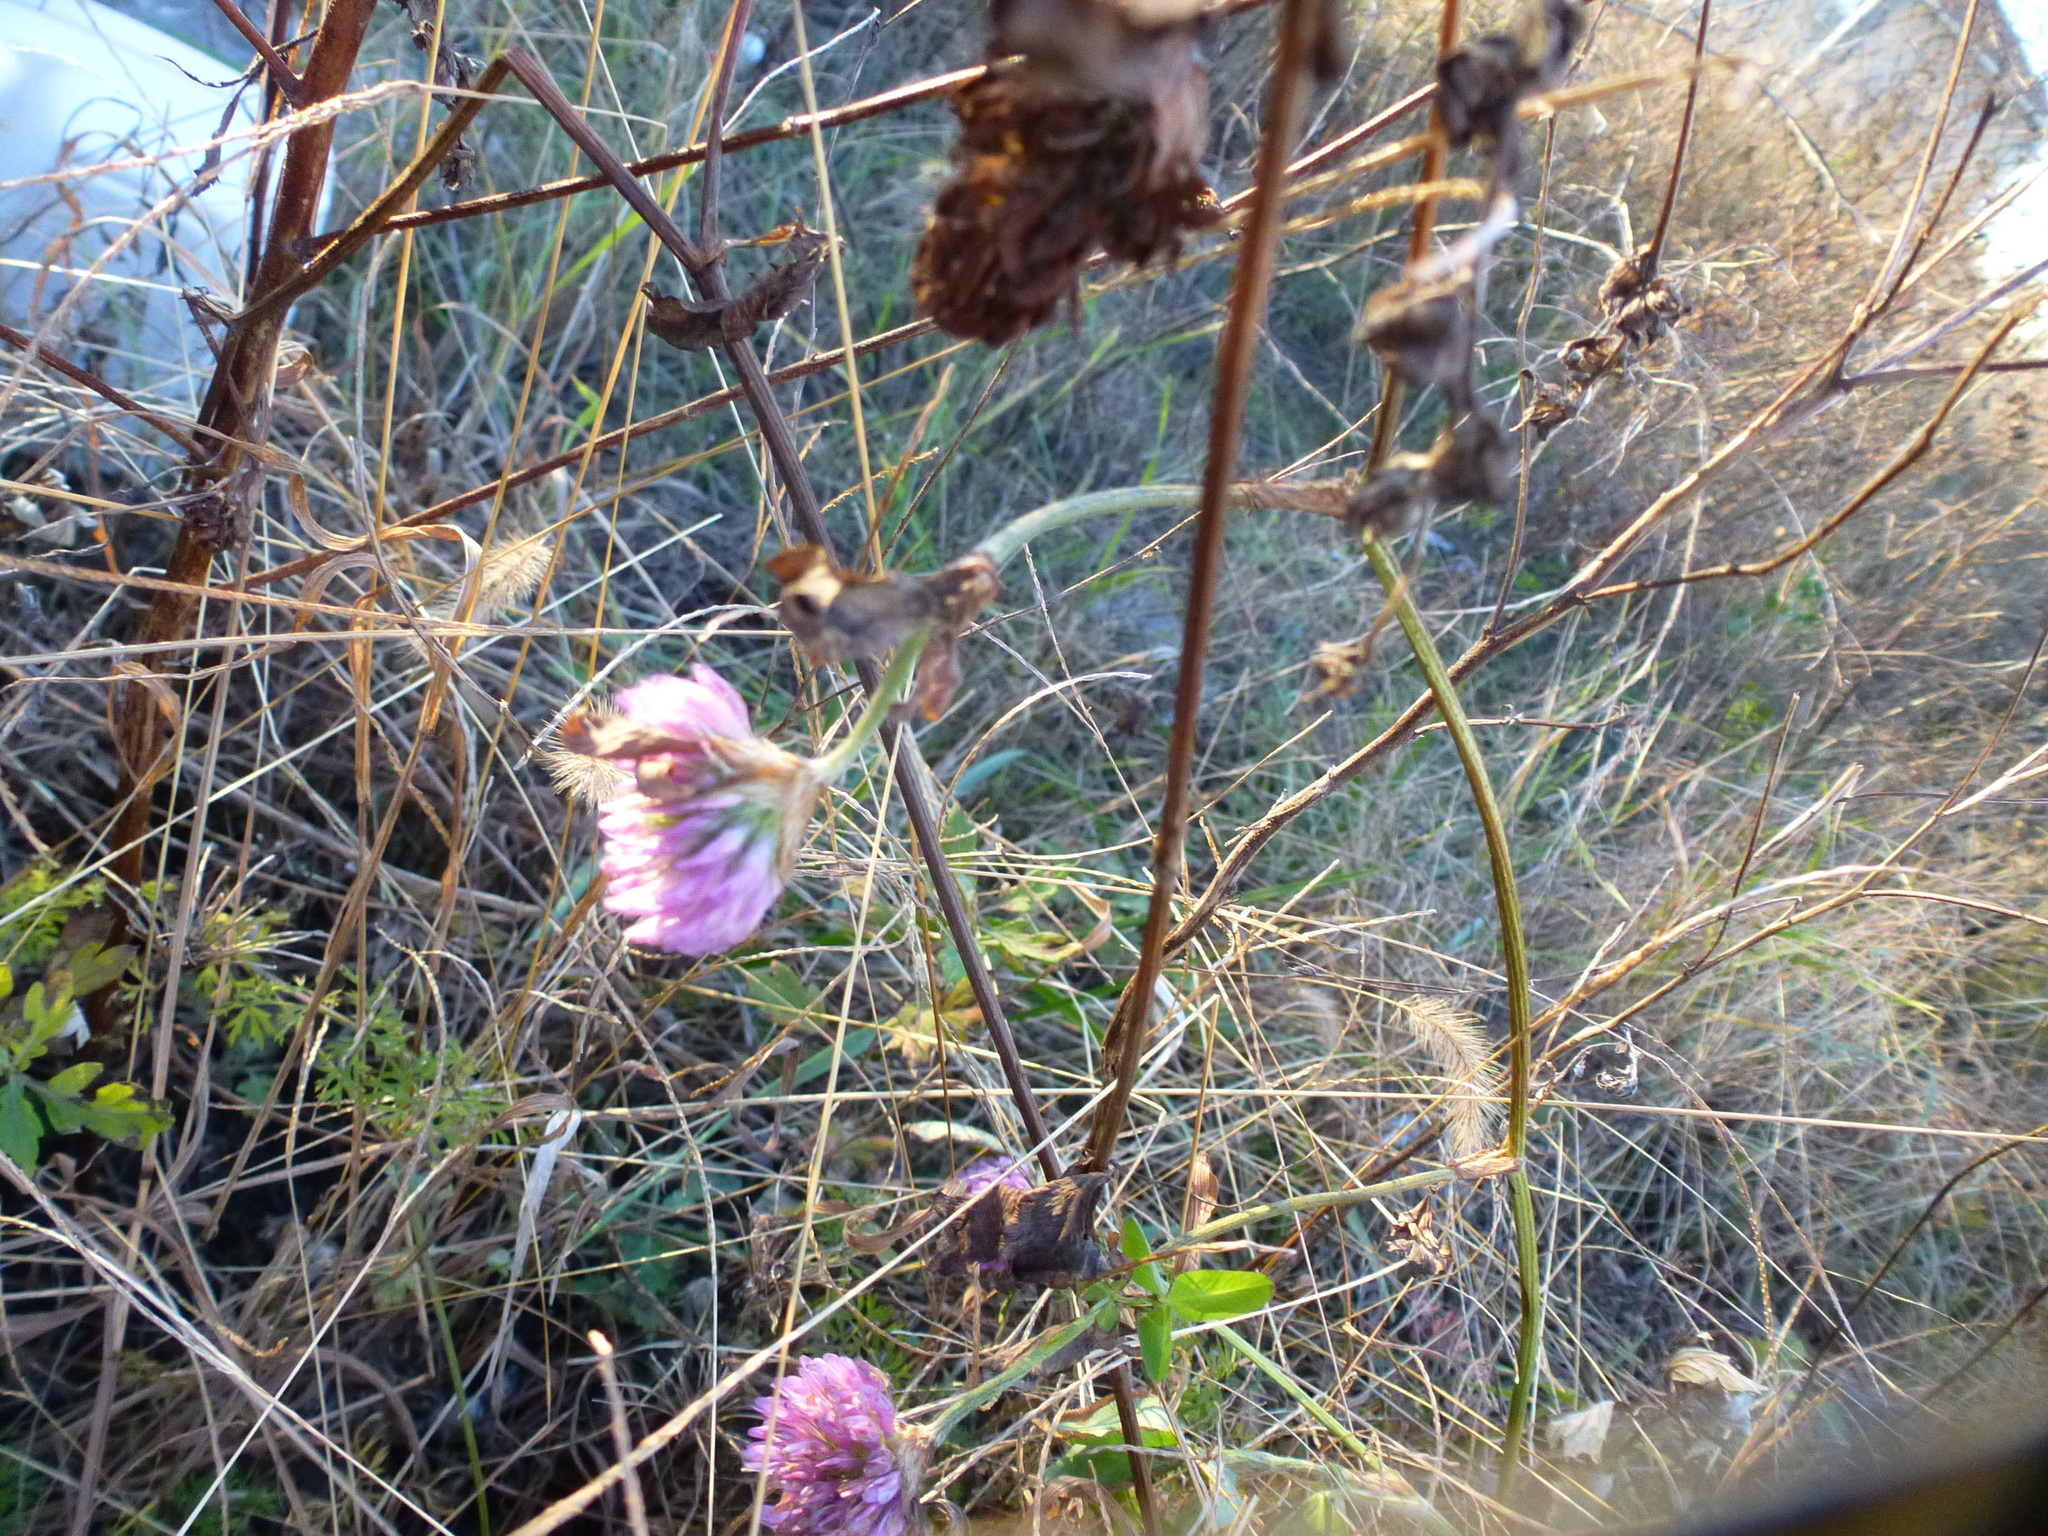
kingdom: Plantae
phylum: Tracheophyta
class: Magnoliopsida
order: Fabales
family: Fabaceae
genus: Trifolium
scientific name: Trifolium pratense
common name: Red clover
